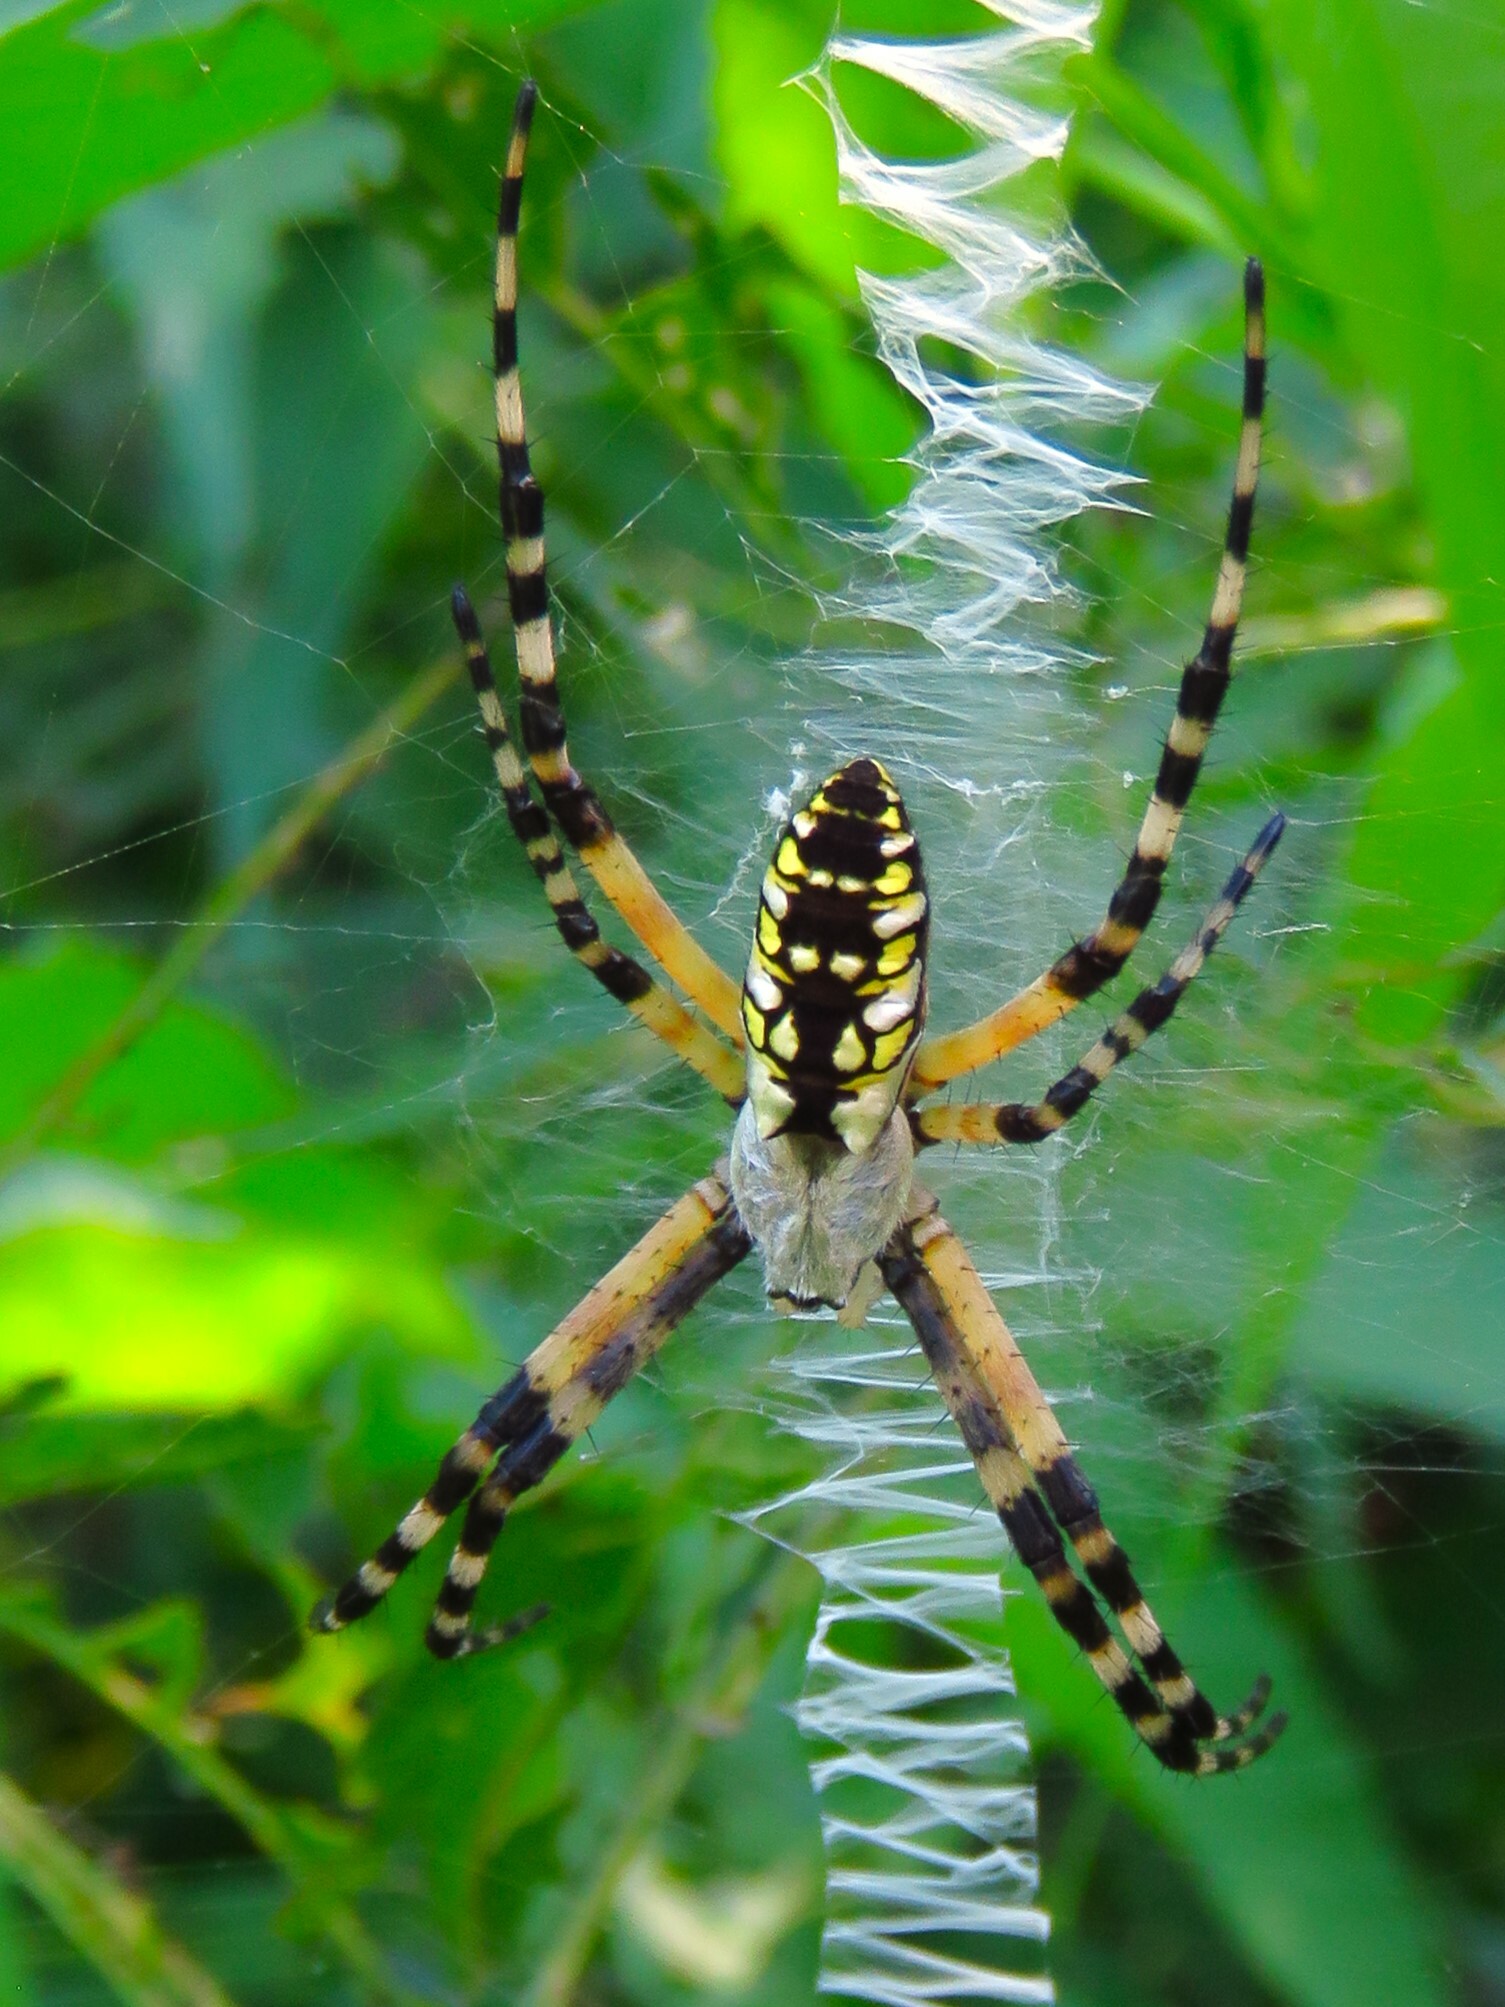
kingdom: Animalia
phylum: Arthropoda
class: Arachnida
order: Araneae
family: Araneidae
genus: Argiope
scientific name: Argiope aurantia
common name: Orb weavers
